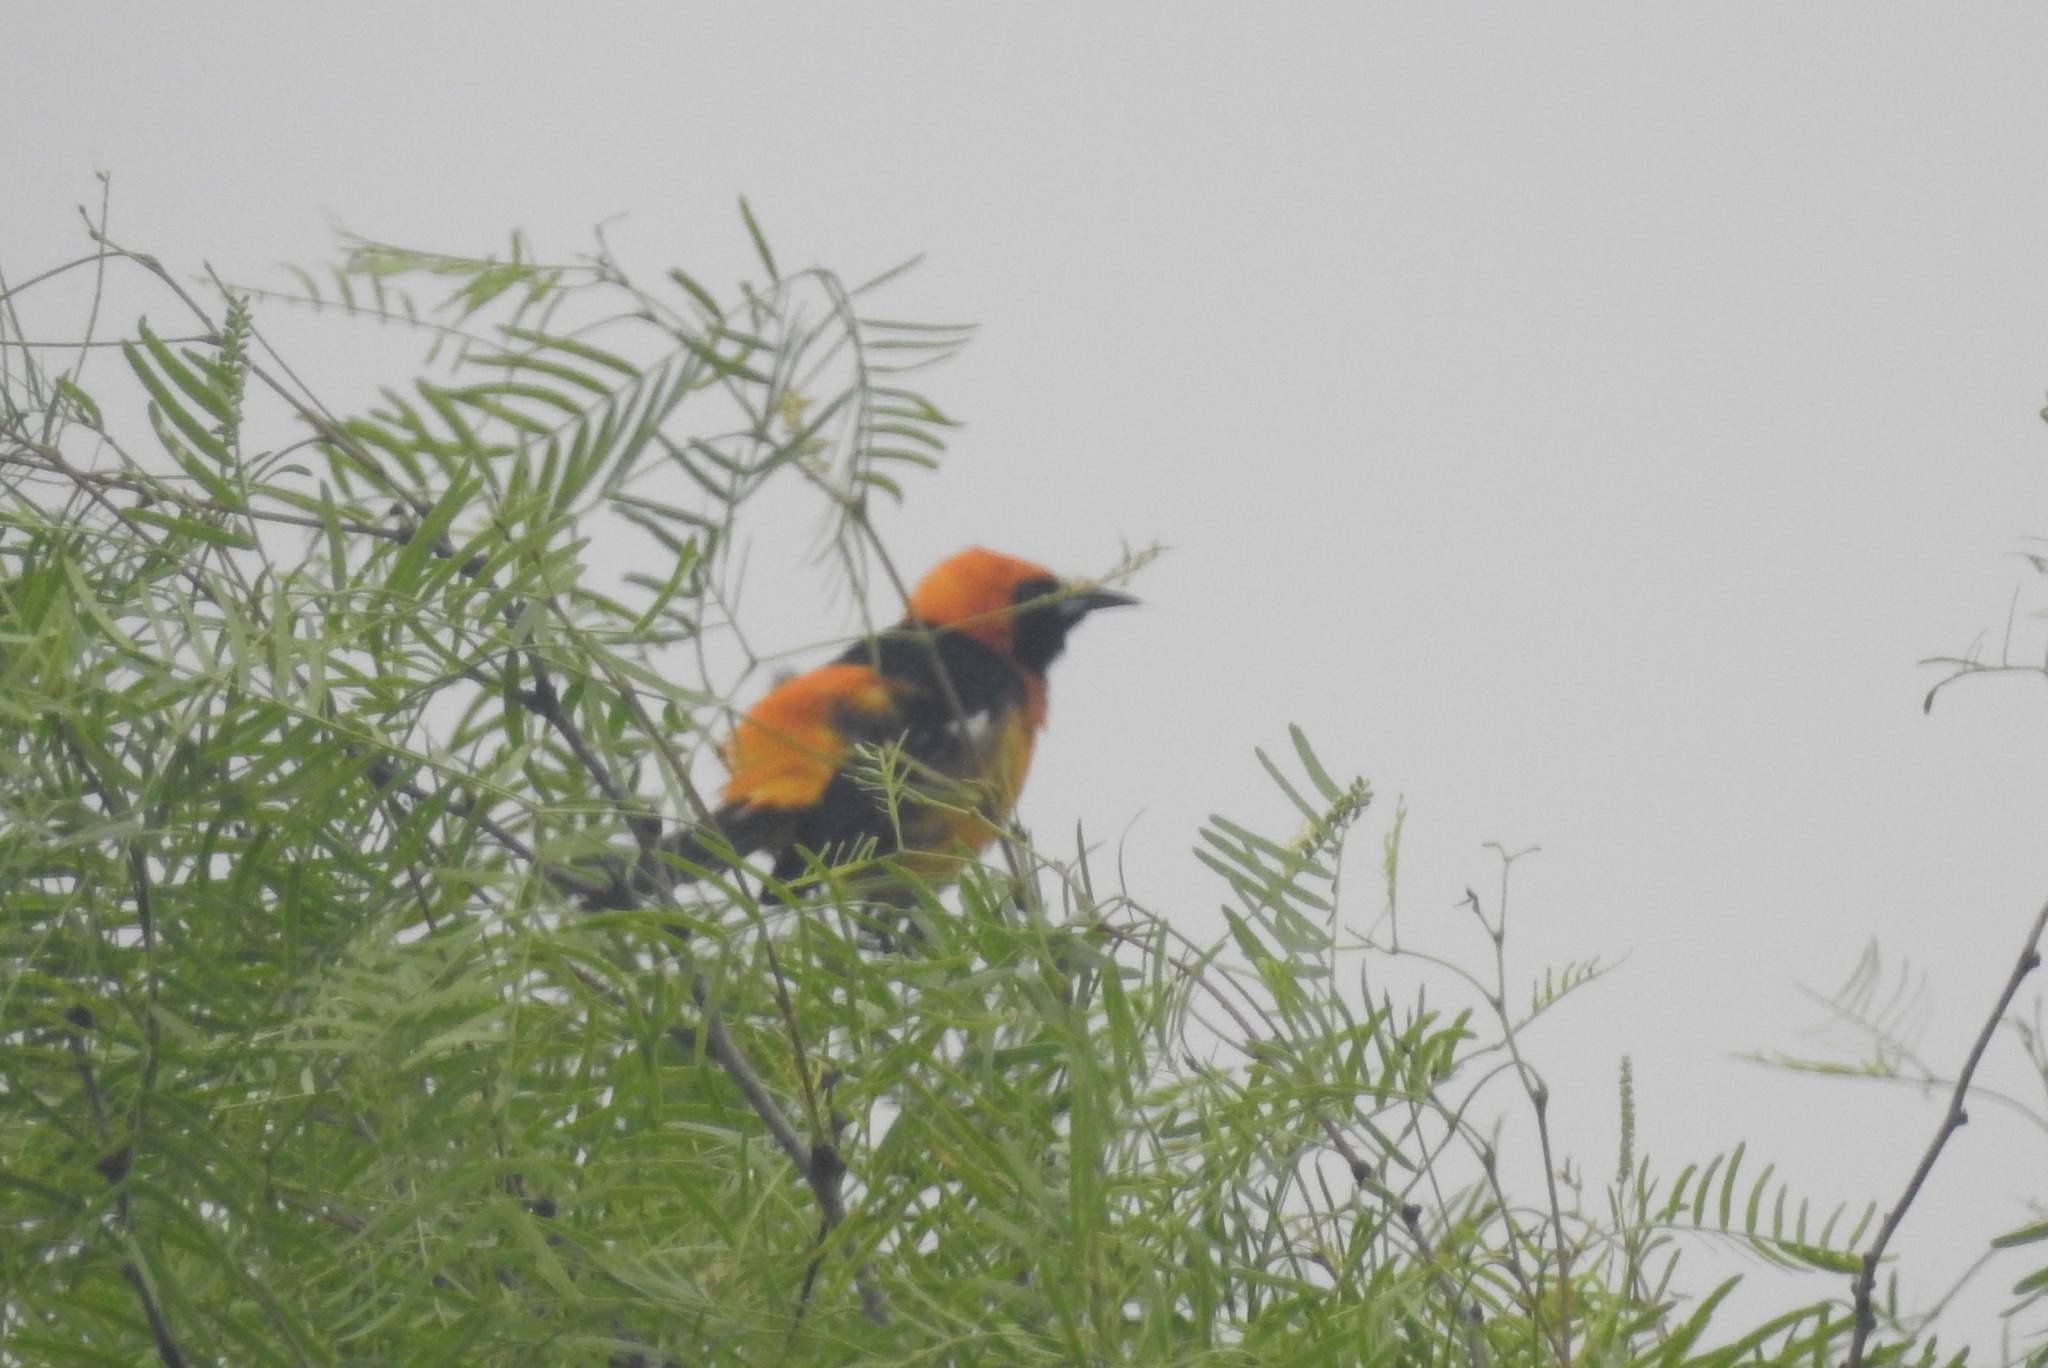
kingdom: Animalia
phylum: Chordata
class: Aves
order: Passeriformes
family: Icteridae
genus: Icterus
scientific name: Icterus cucullatus
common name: Hooded oriole
